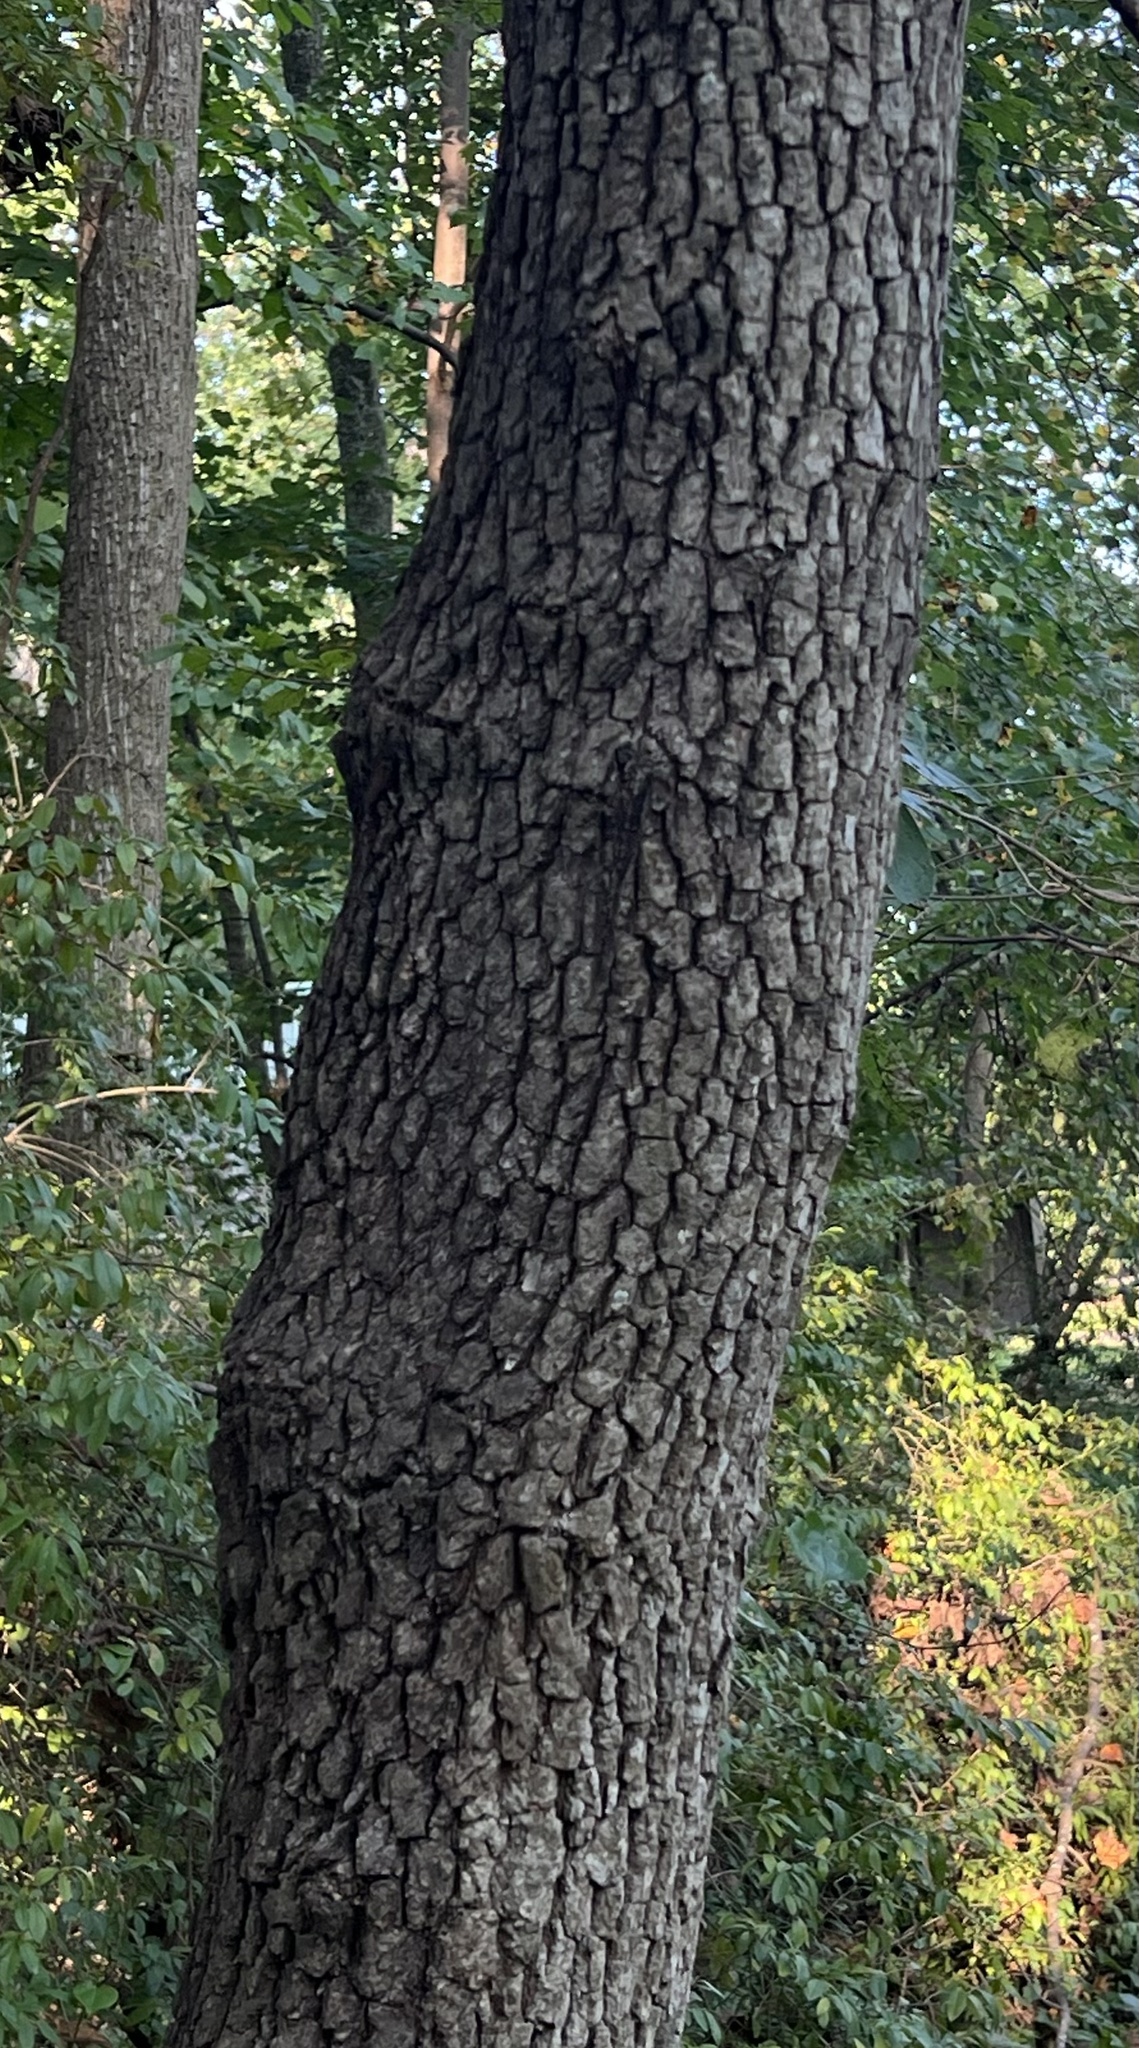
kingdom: Plantae
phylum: Tracheophyta
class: Magnoliopsida
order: Ericales
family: Ebenaceae
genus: Diospyros
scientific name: Diospyros virginiana
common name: Persimmon
